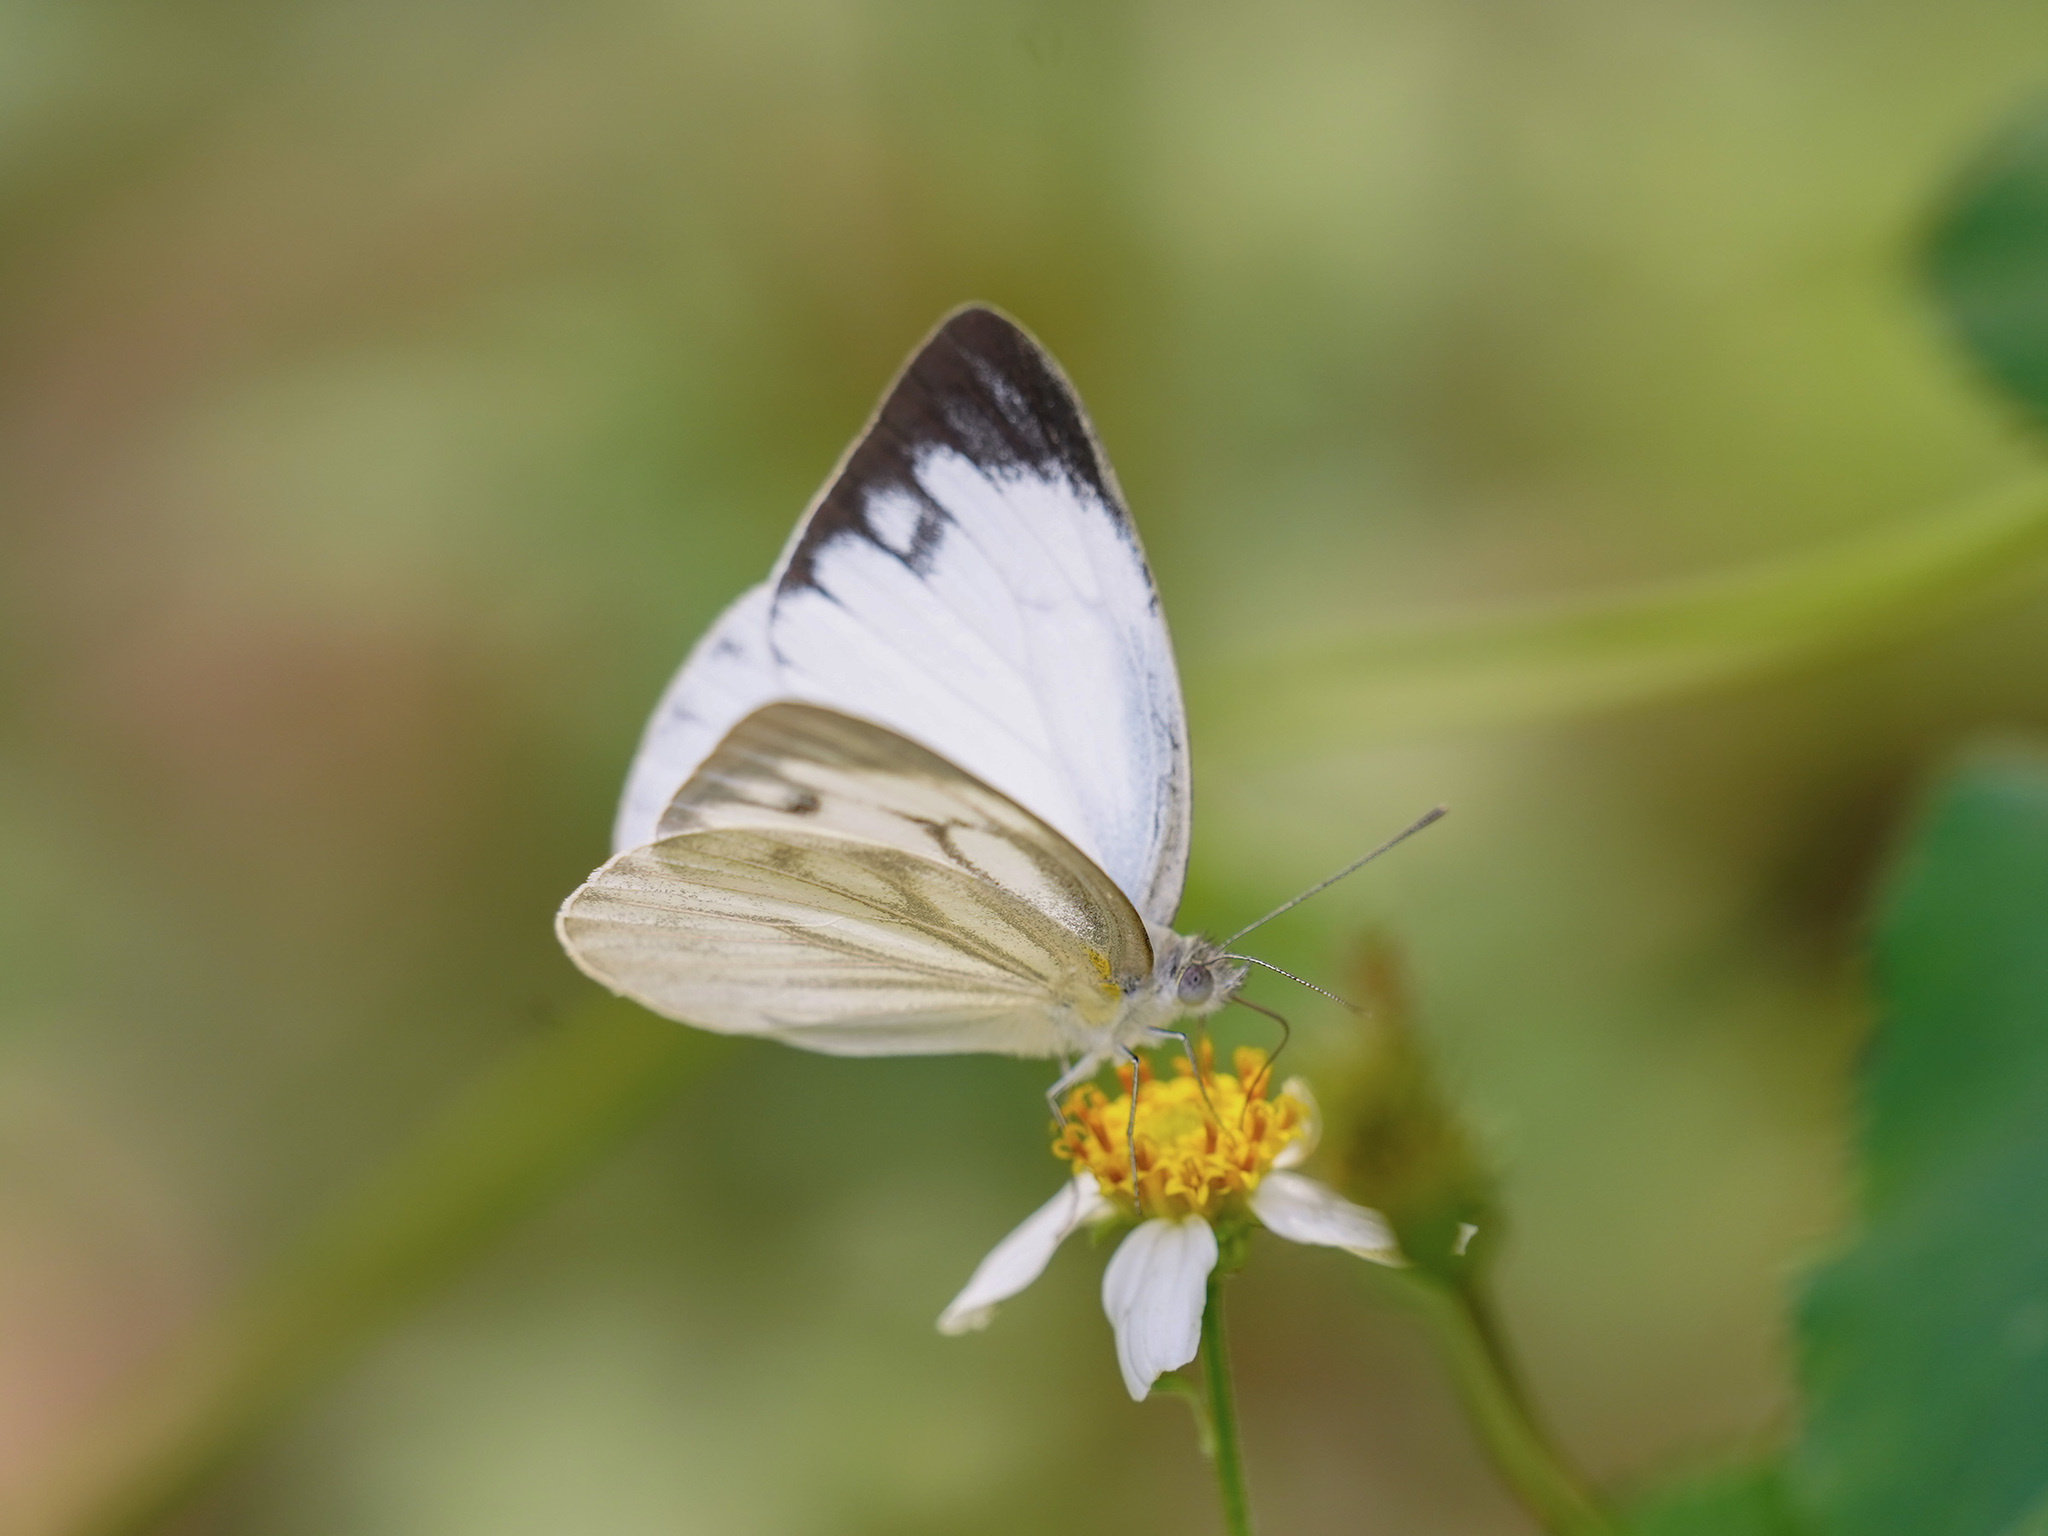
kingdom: Animalia
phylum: Arthropoda
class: Insecta
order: Lepidoptera
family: Pieridae
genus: Cepora
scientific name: Cepora nerissa
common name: Common gull
